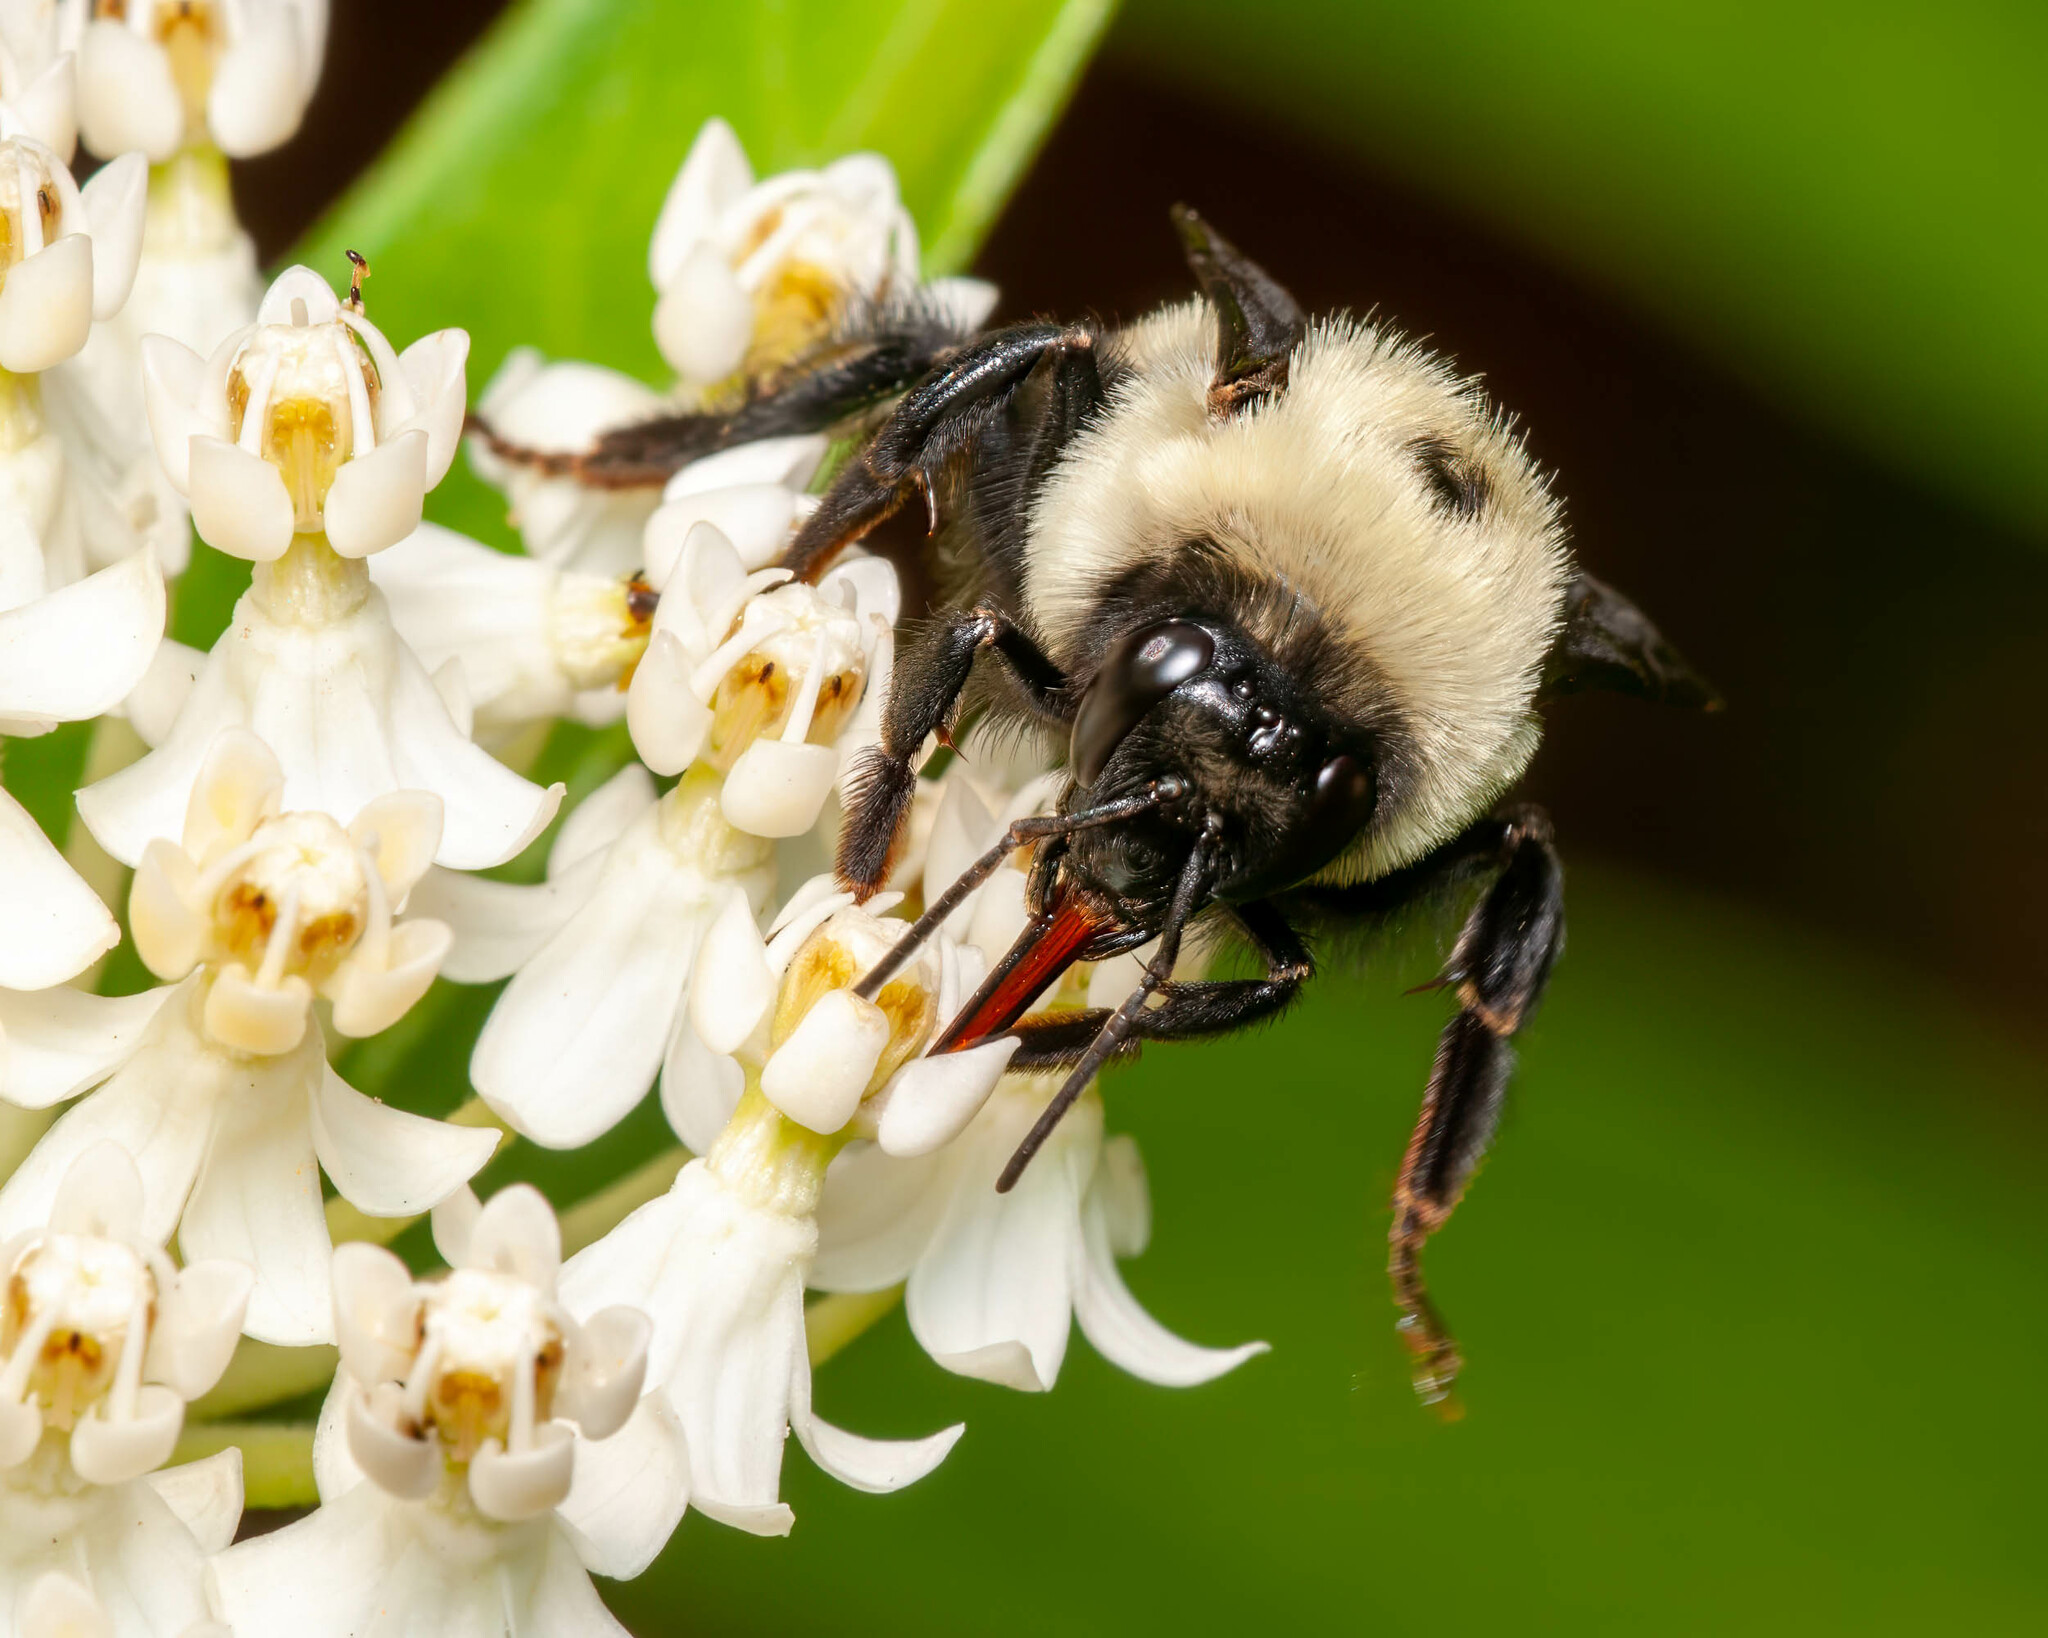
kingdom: Animalia
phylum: Arthropoda
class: Insecta
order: Hymenoptera
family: Apidae
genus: Bombus
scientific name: Bombus griseocollis
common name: Brown-belted bumble bee
